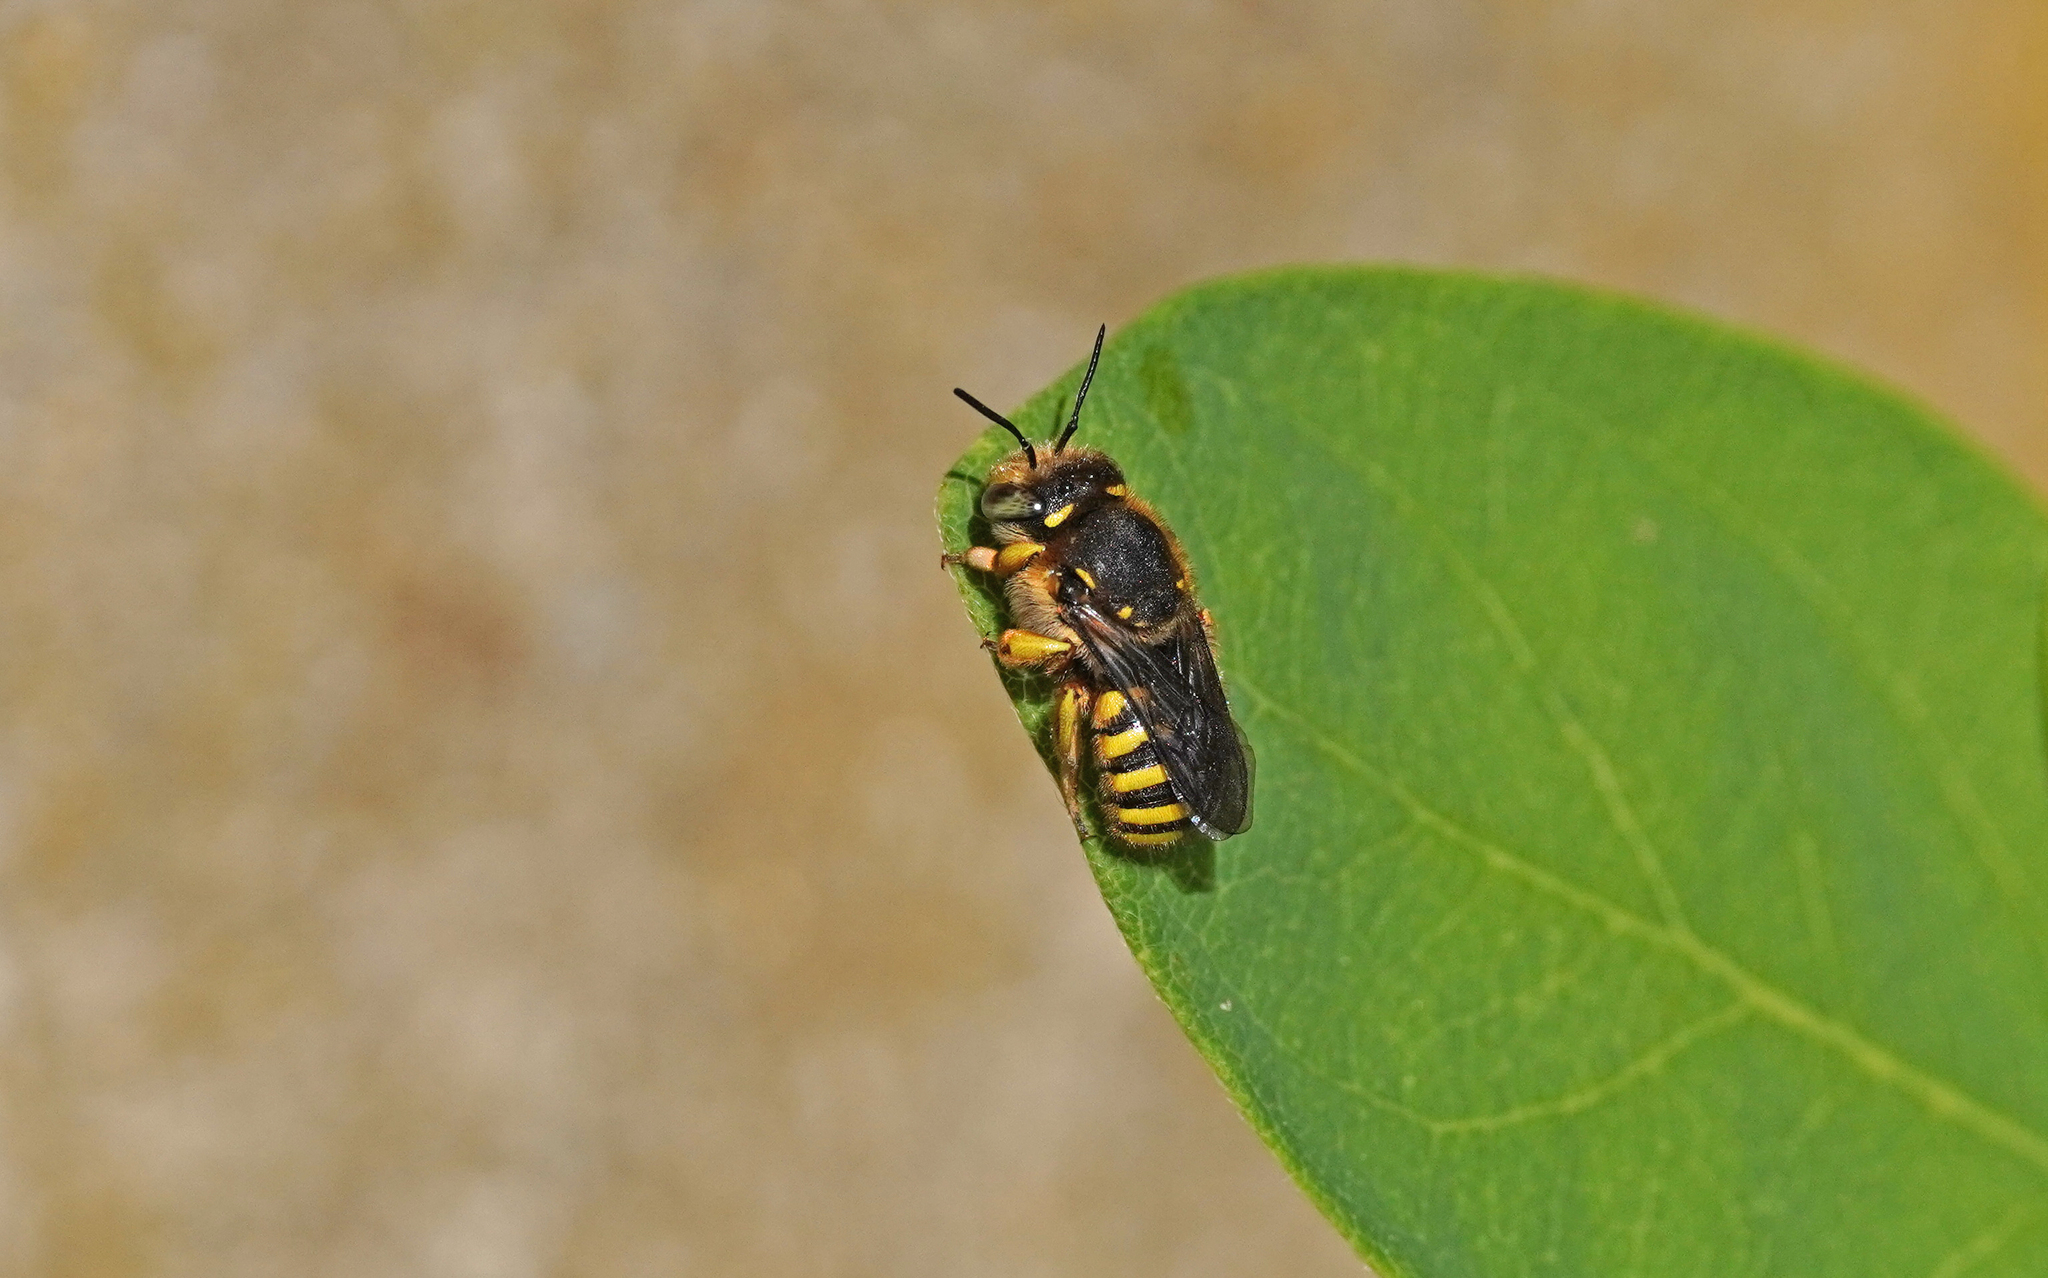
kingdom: Animalia
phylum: Arthropoda
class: Insecta
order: Hymenoptera
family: Megachilidae
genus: Anthidium
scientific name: Anthidium manicatum
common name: Wool carder bee
